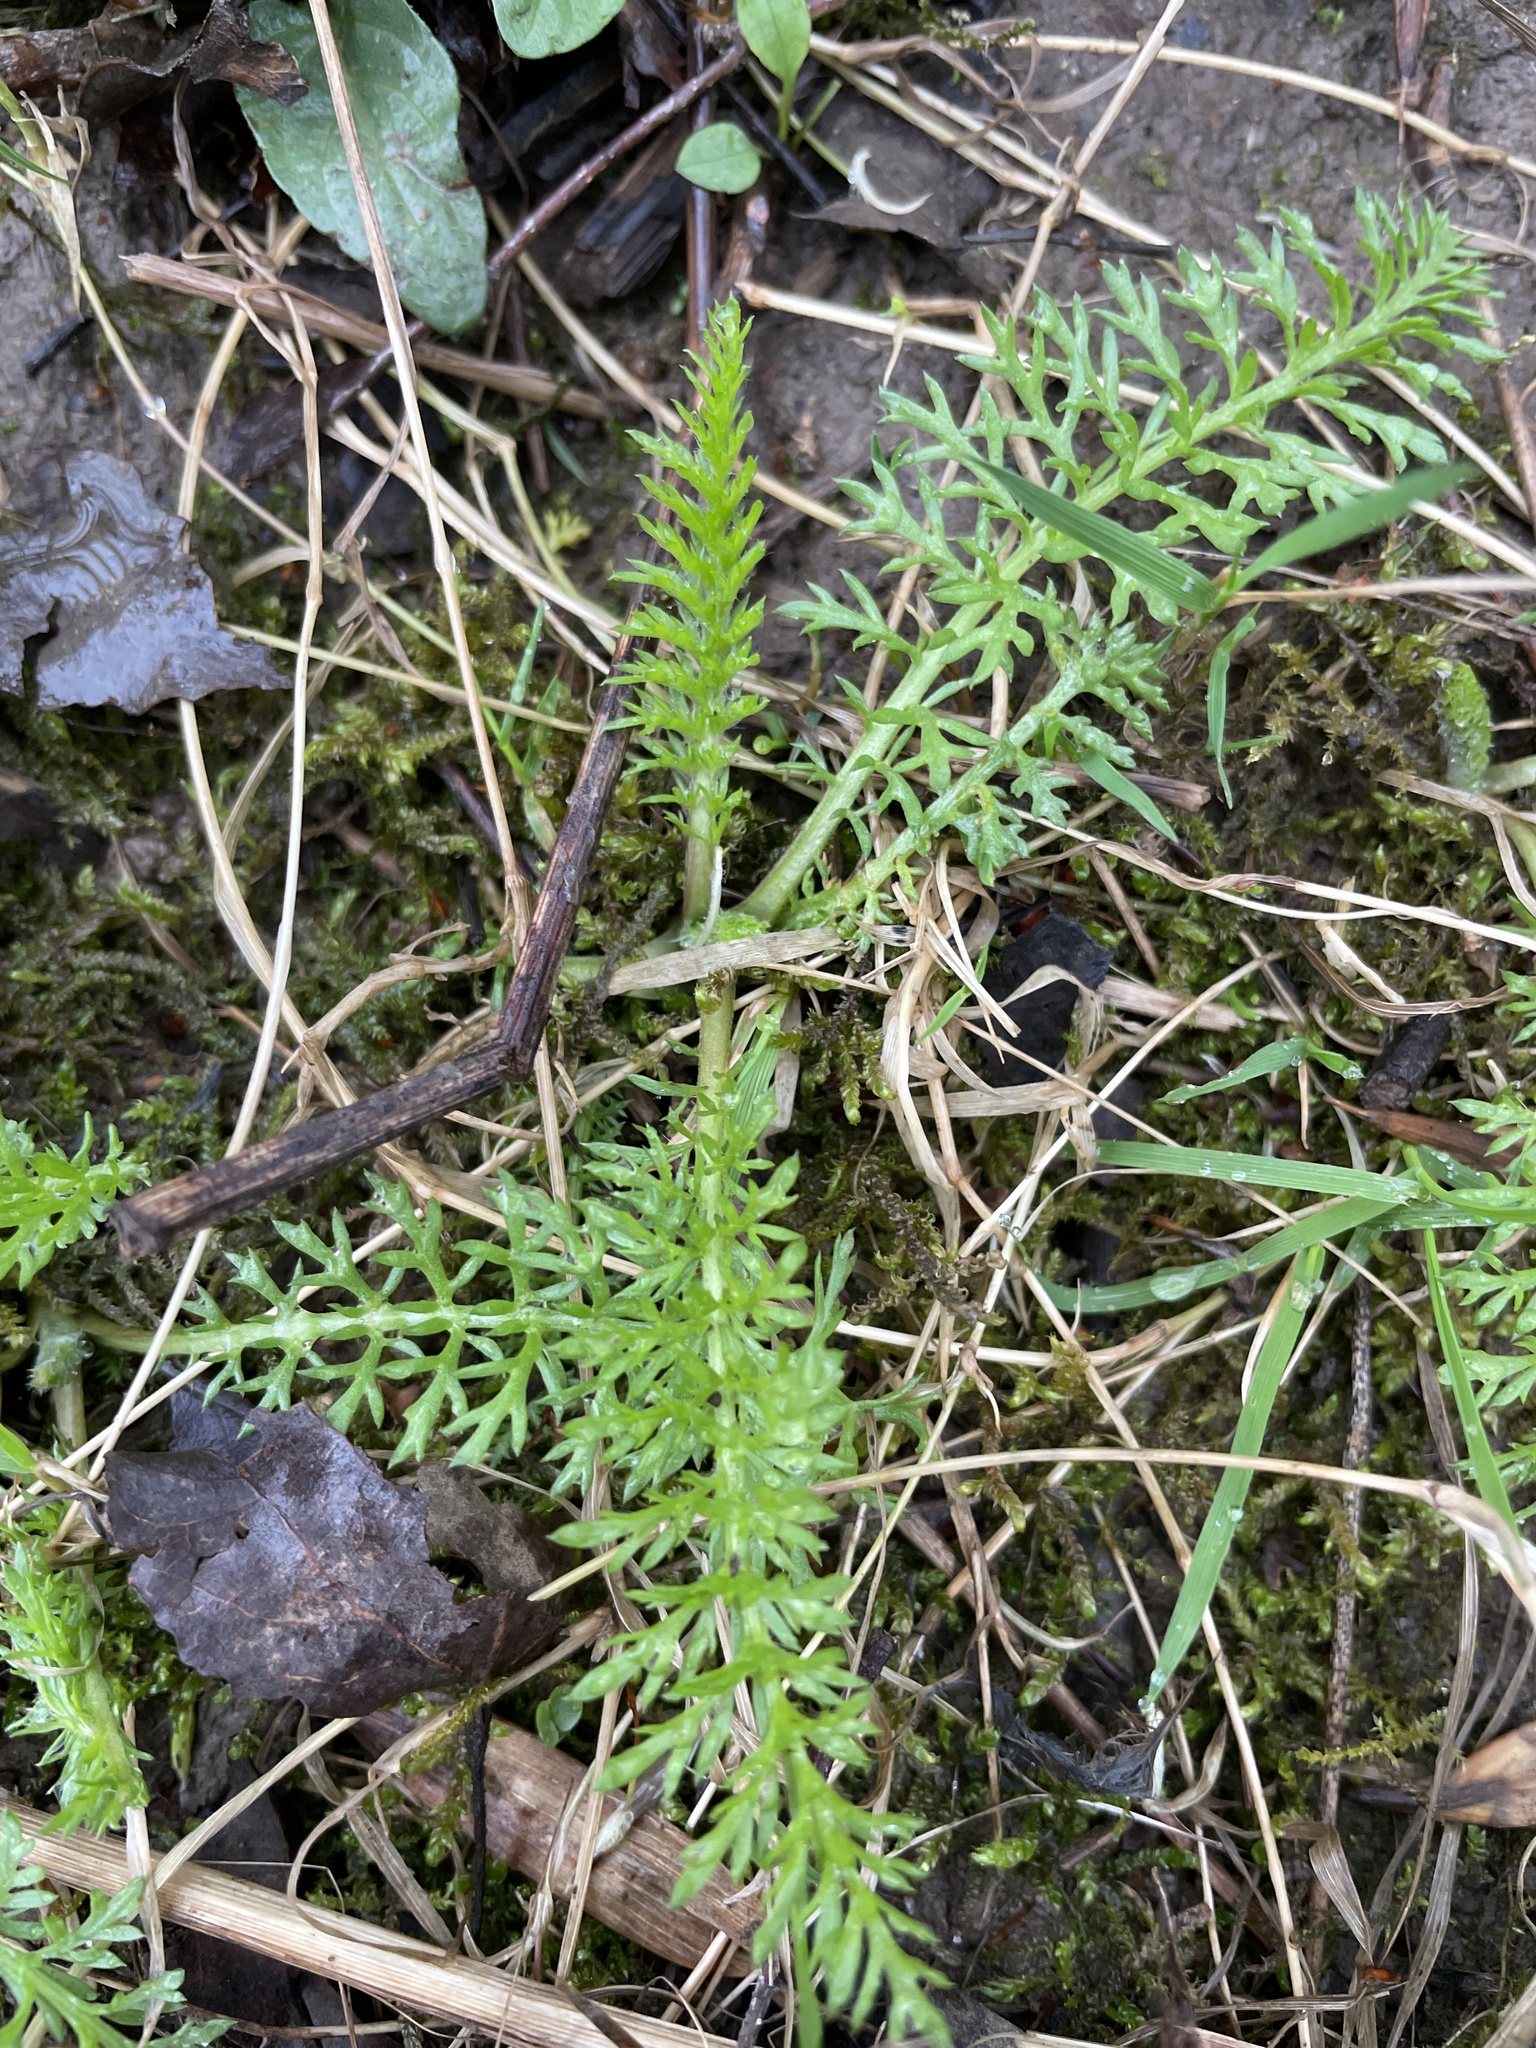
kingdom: Plantae
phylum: Tracheophyta
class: Magnoliopsida
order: Asterales
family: Asteraceae
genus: Achillea
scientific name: Achillea millefolium
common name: Yarrow
